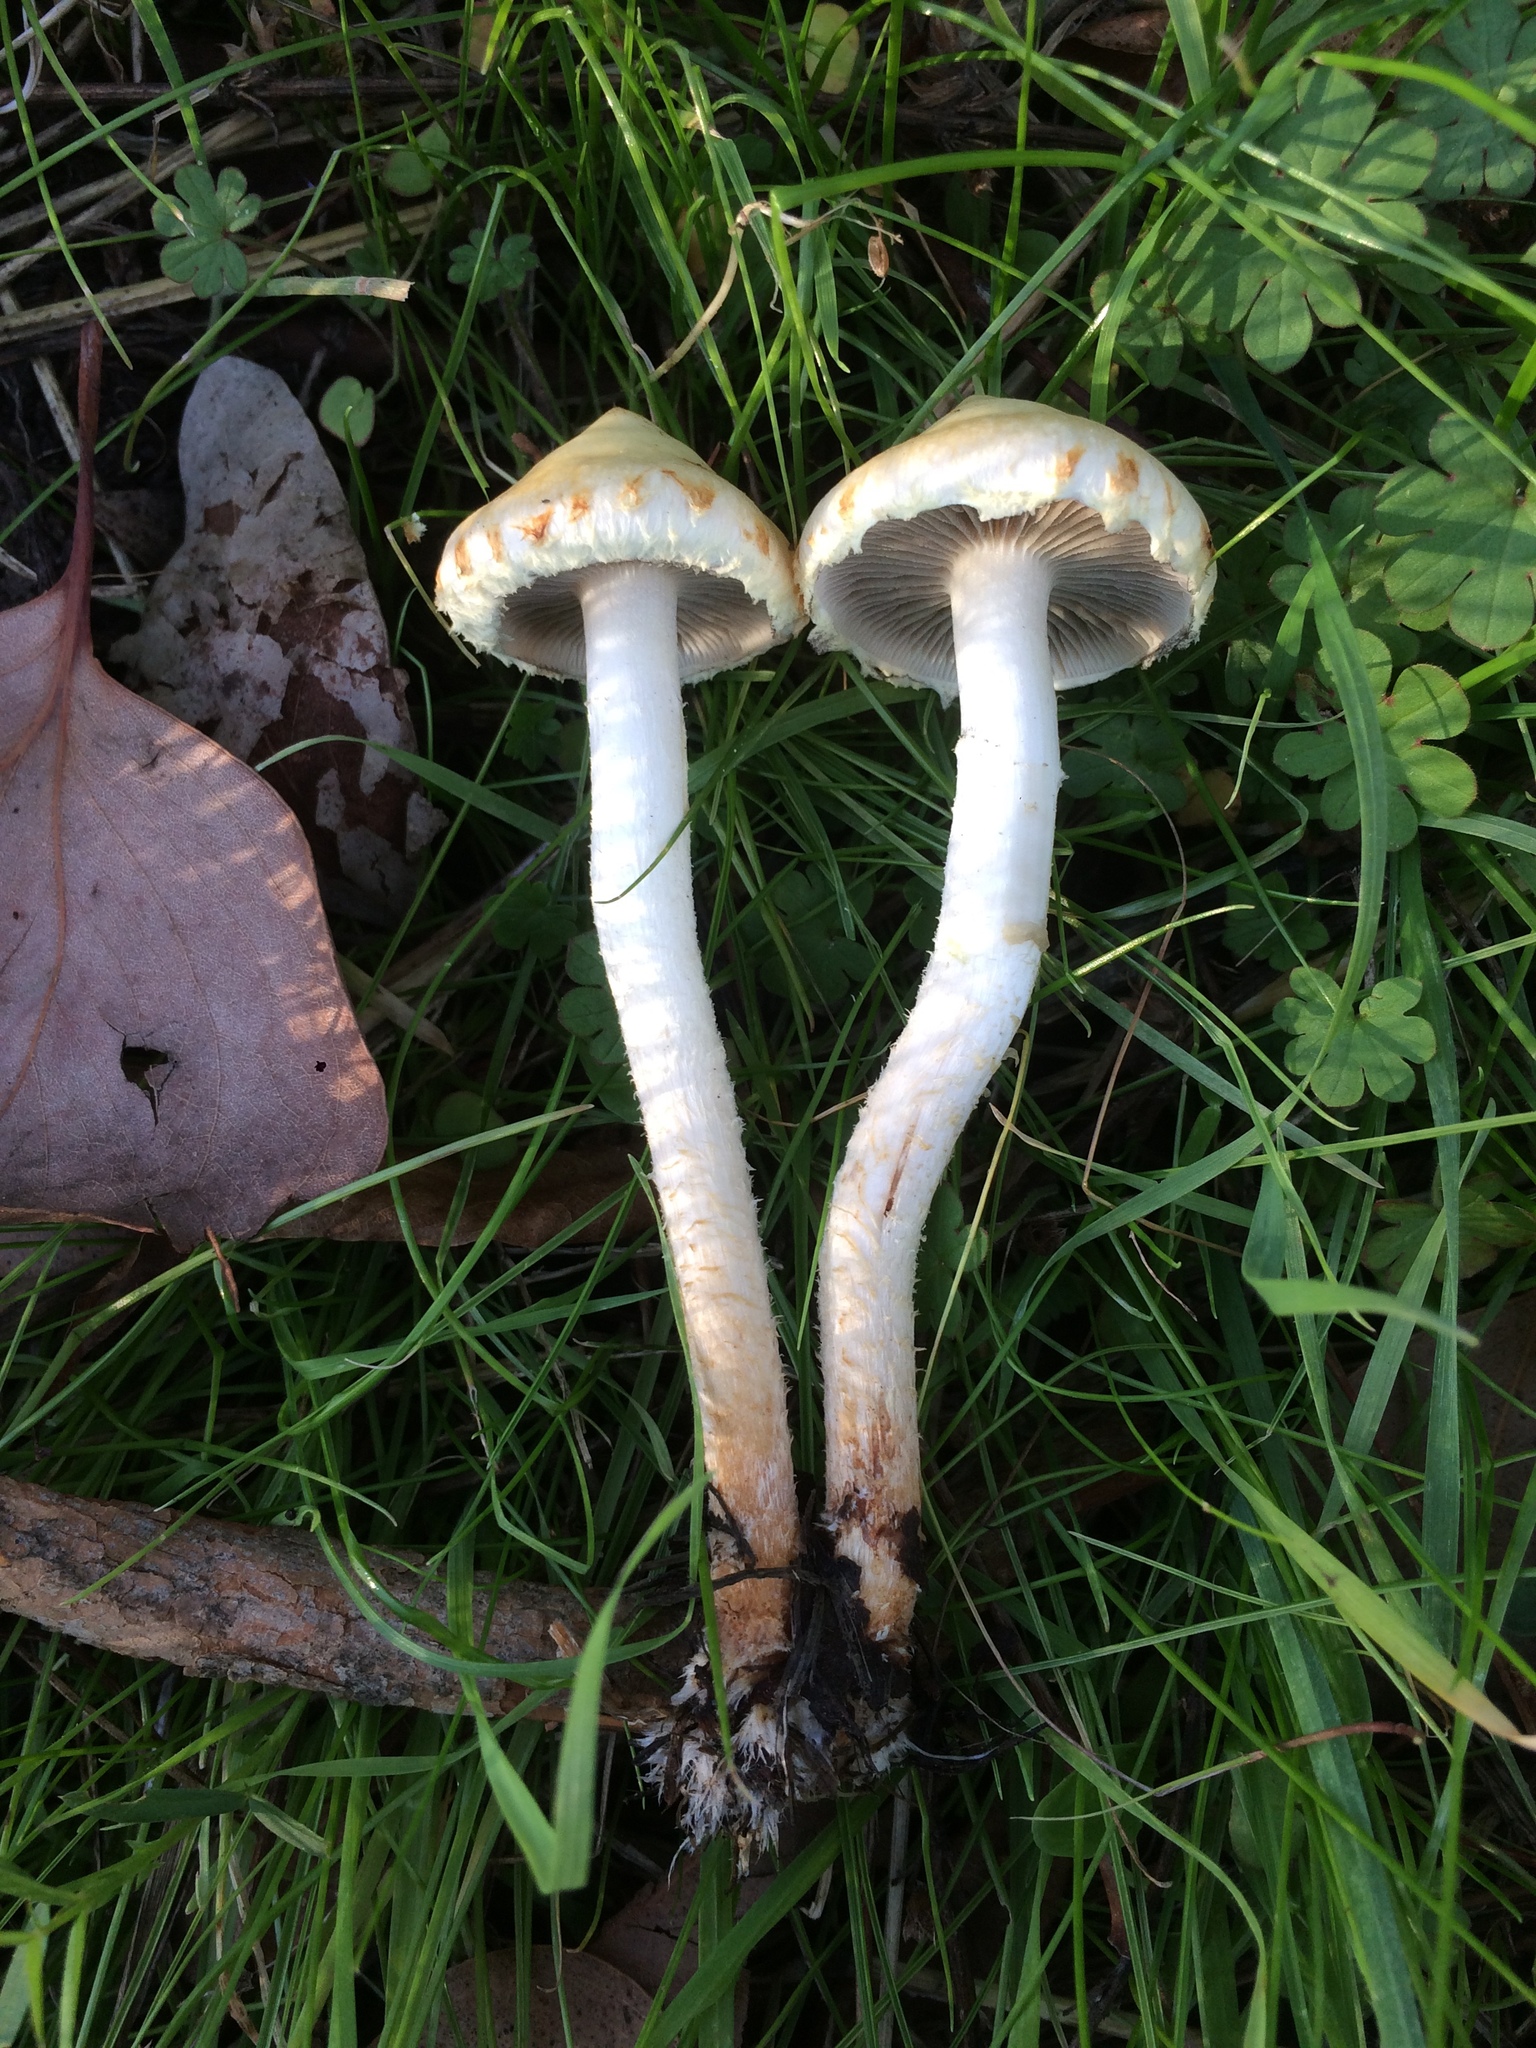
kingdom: Fungi
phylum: Basidiomycota
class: Agaricomycetes
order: Agaricales
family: Strophariaceae
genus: Leratiomyces
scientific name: Leratiomyces percevalii
